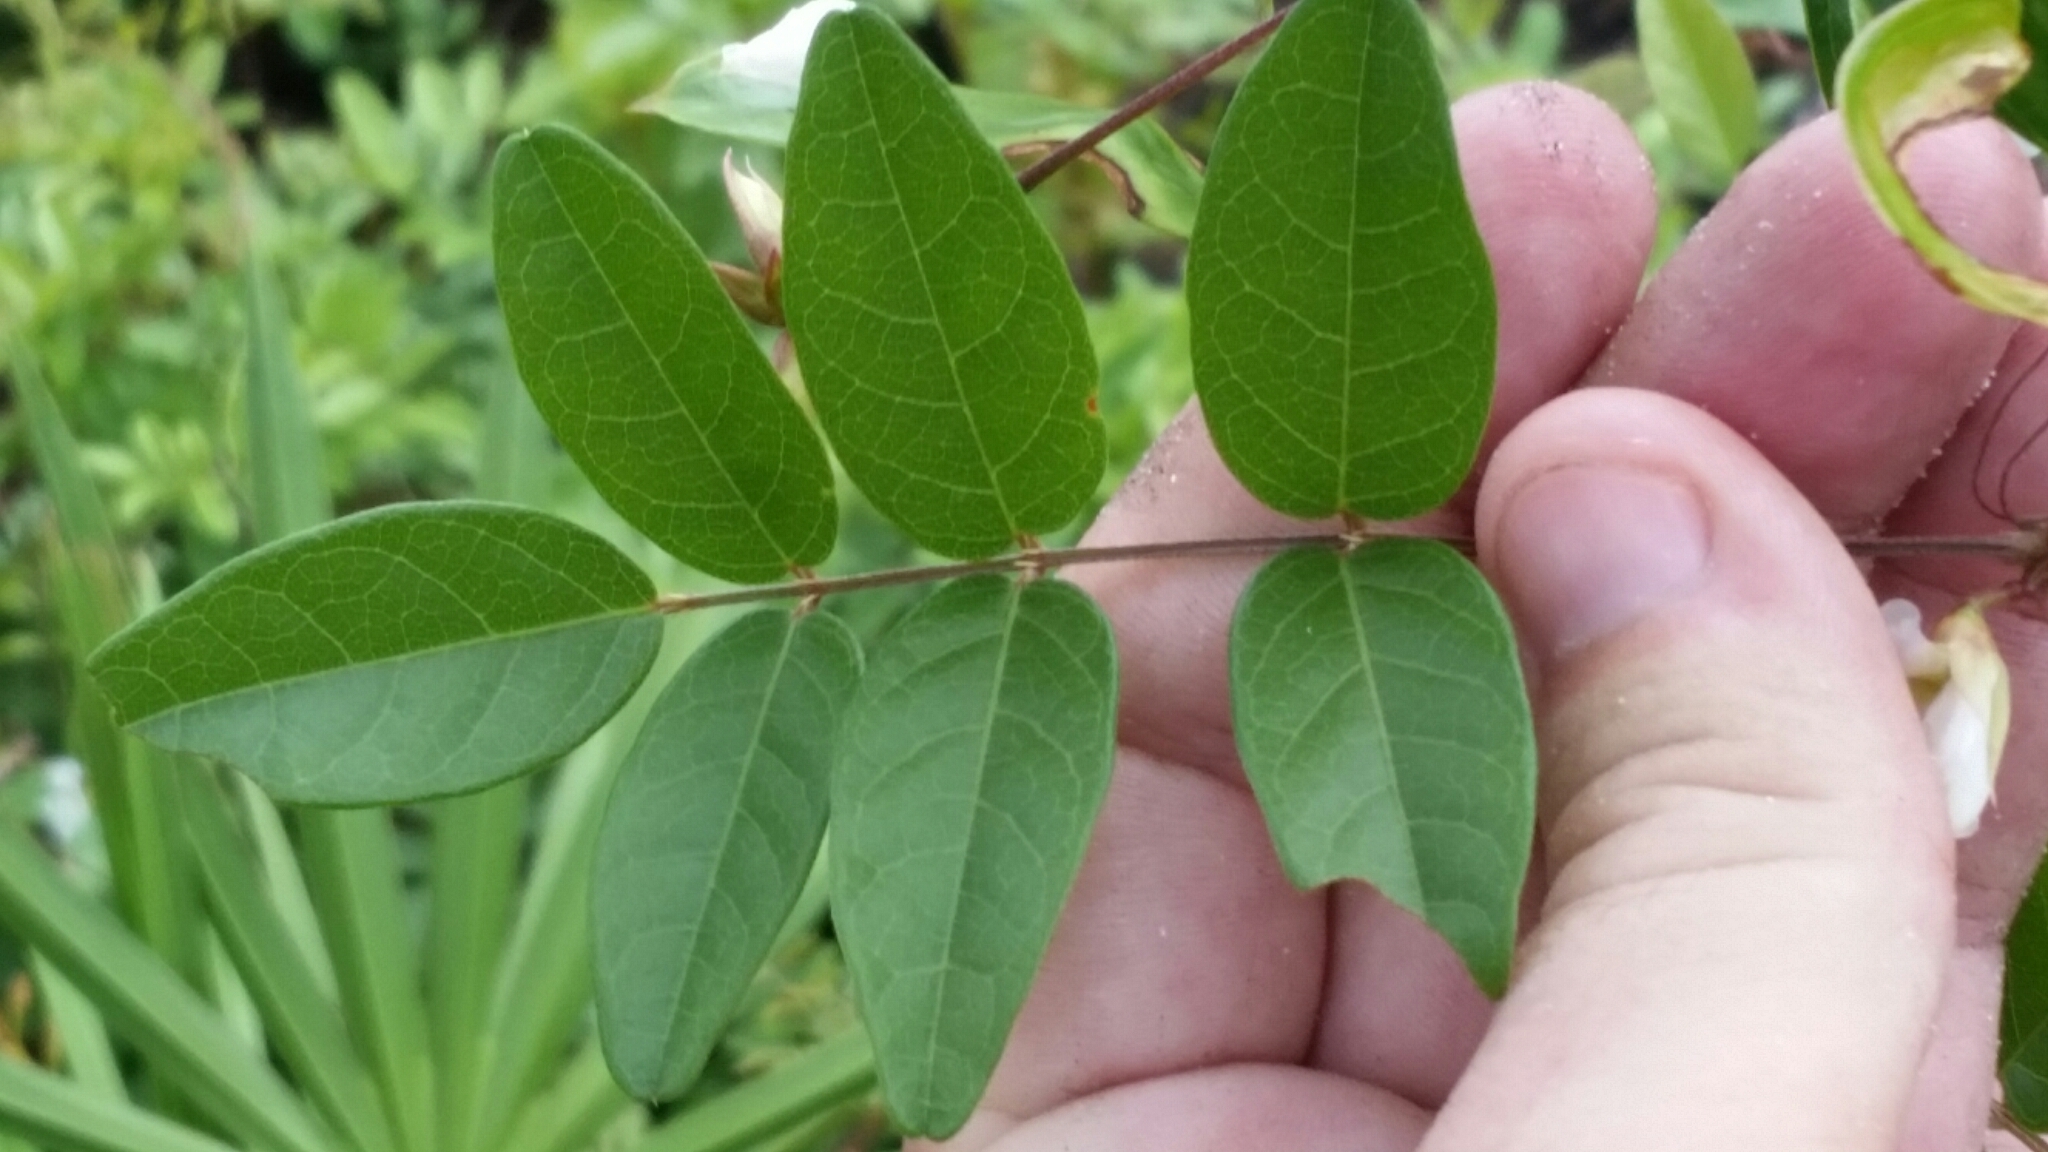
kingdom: Plantae
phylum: Tracheophyta
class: Magnoliopsida
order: Fabales
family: Fabaceae
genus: Galactia
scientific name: Galactia elliottii
